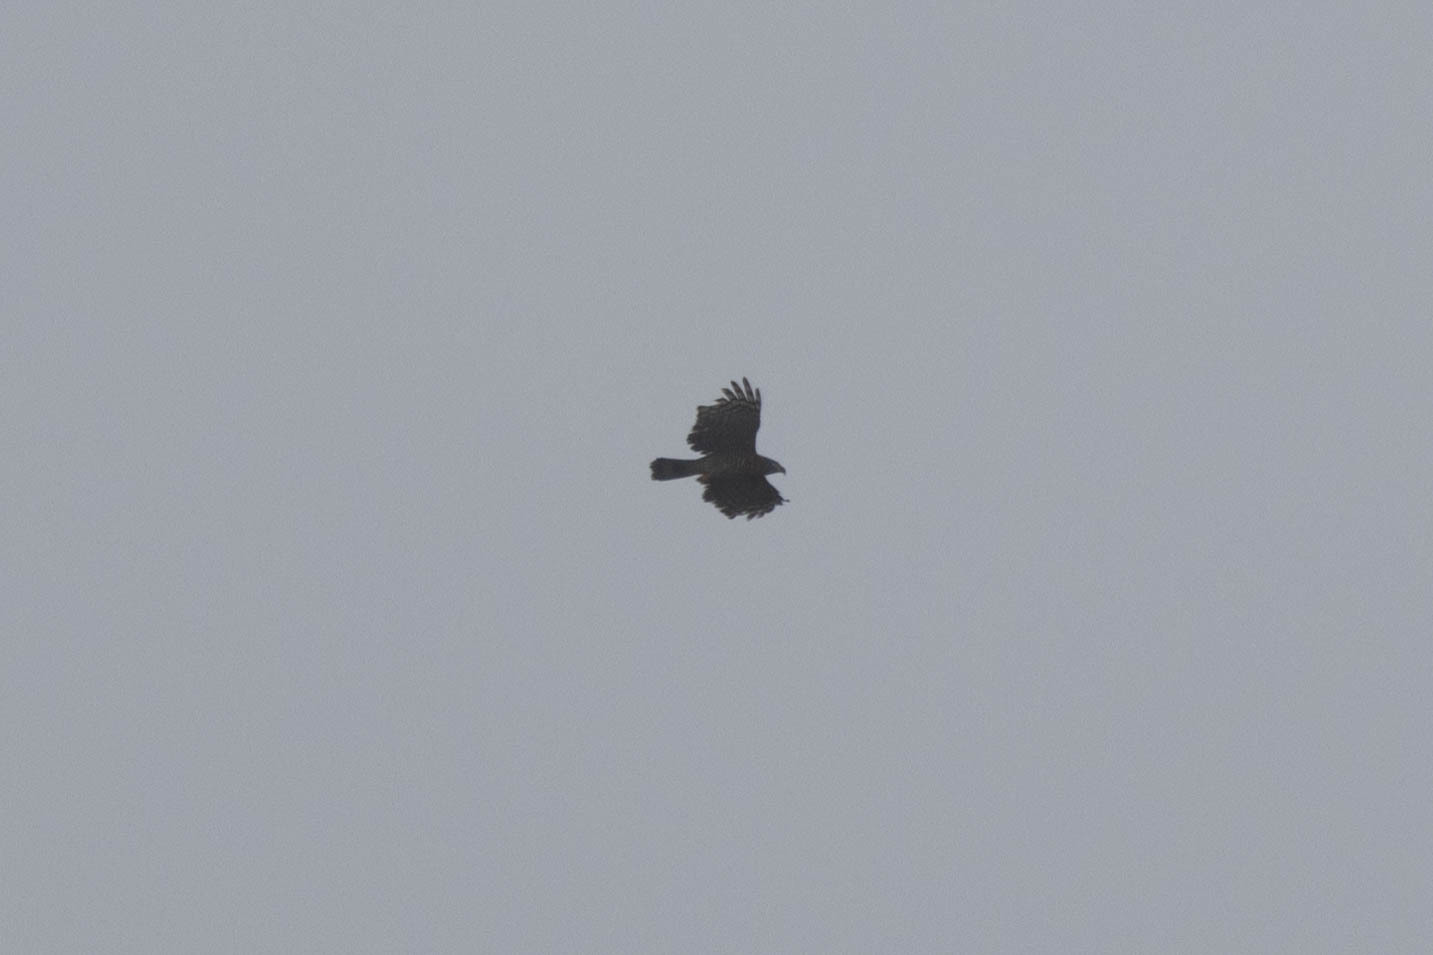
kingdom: Animalia
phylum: Chordata
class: Aves
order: Accipitriformes
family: Accipitridae
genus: Chondrohierax
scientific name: Chondrohierax uncinatus
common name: Hook-billed kite
